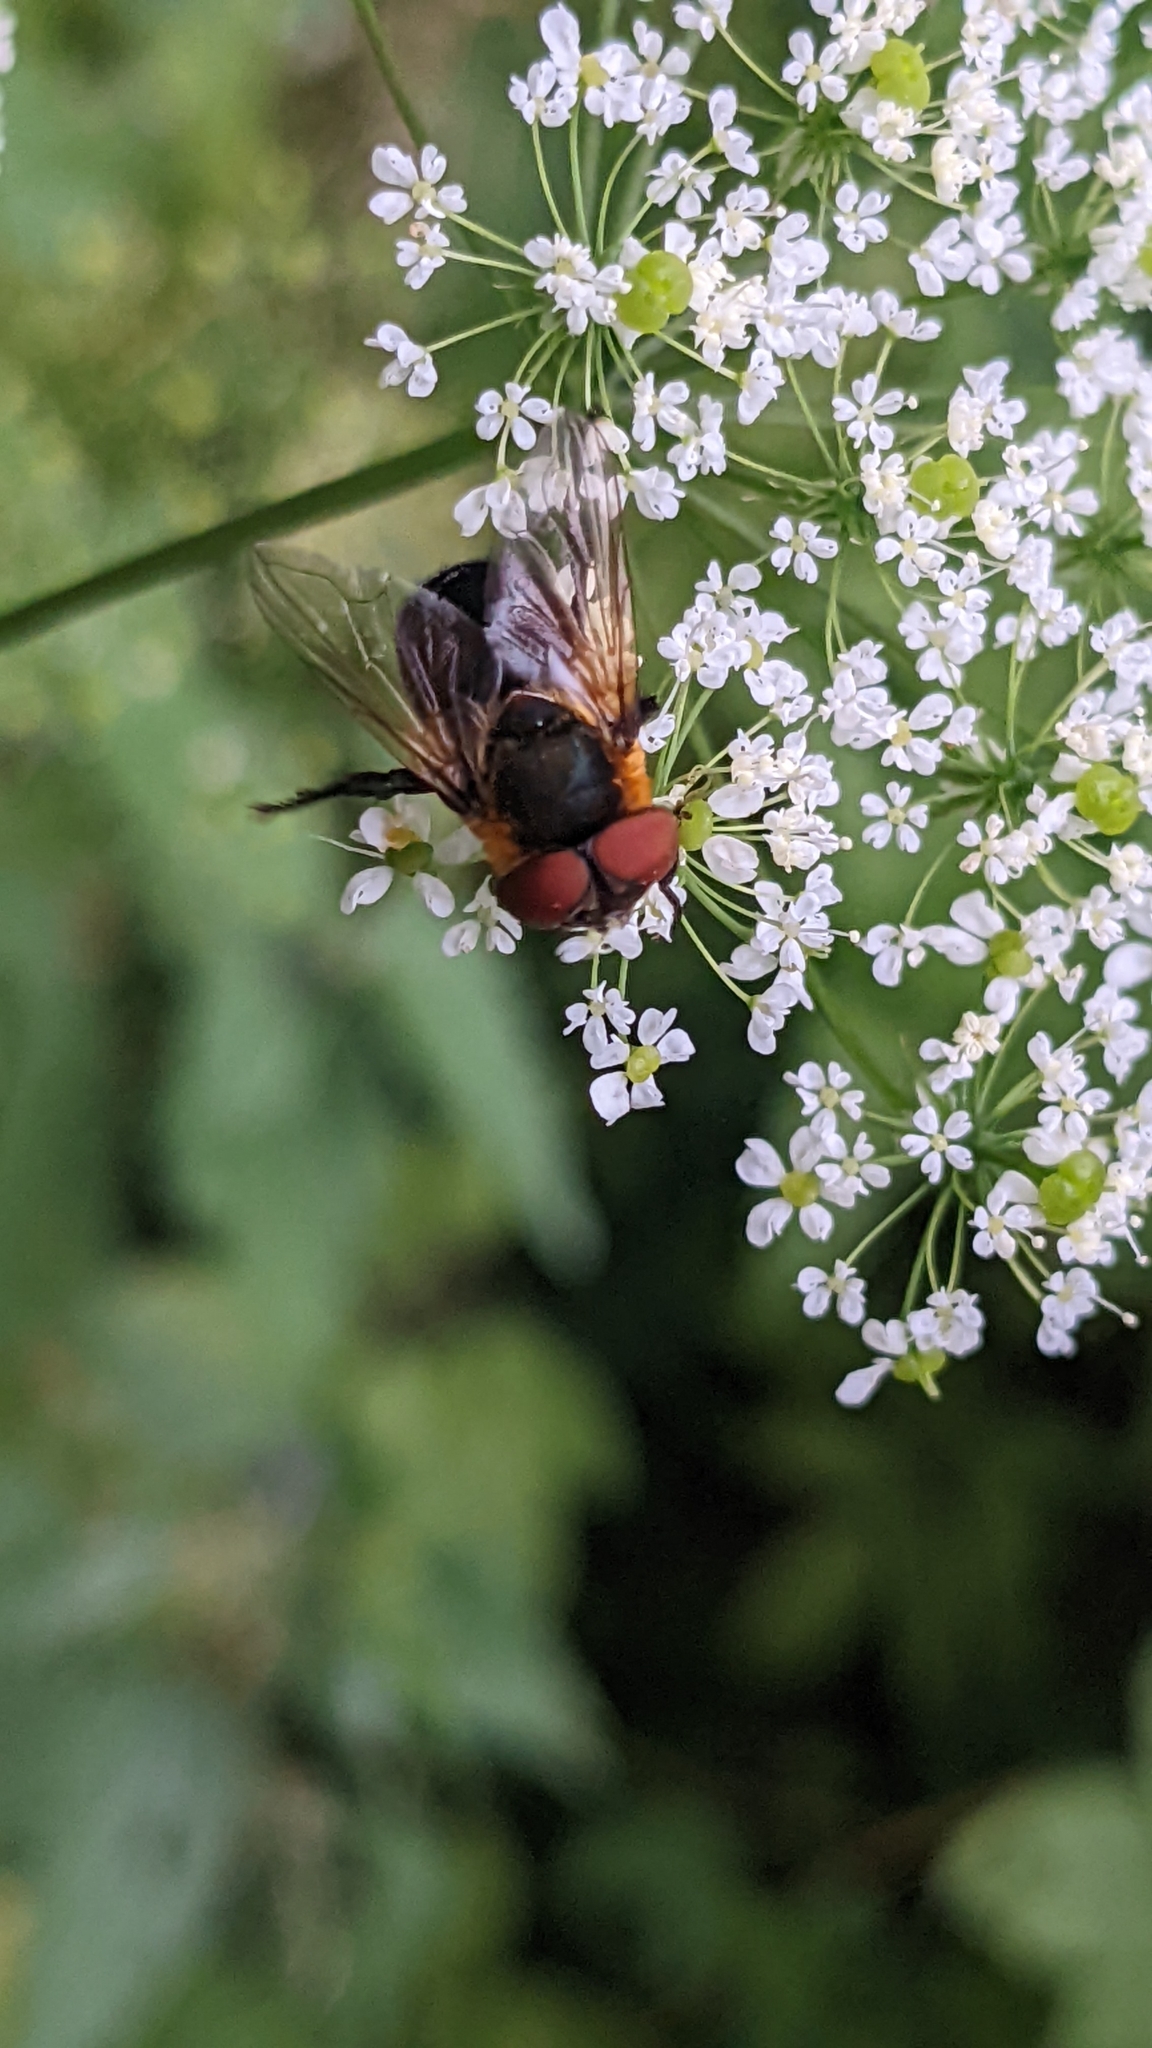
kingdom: Animalia
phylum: Arthropoda
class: Insecta
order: Diptera
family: Tachinidae
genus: Phasia
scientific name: Phasia hemiptera
